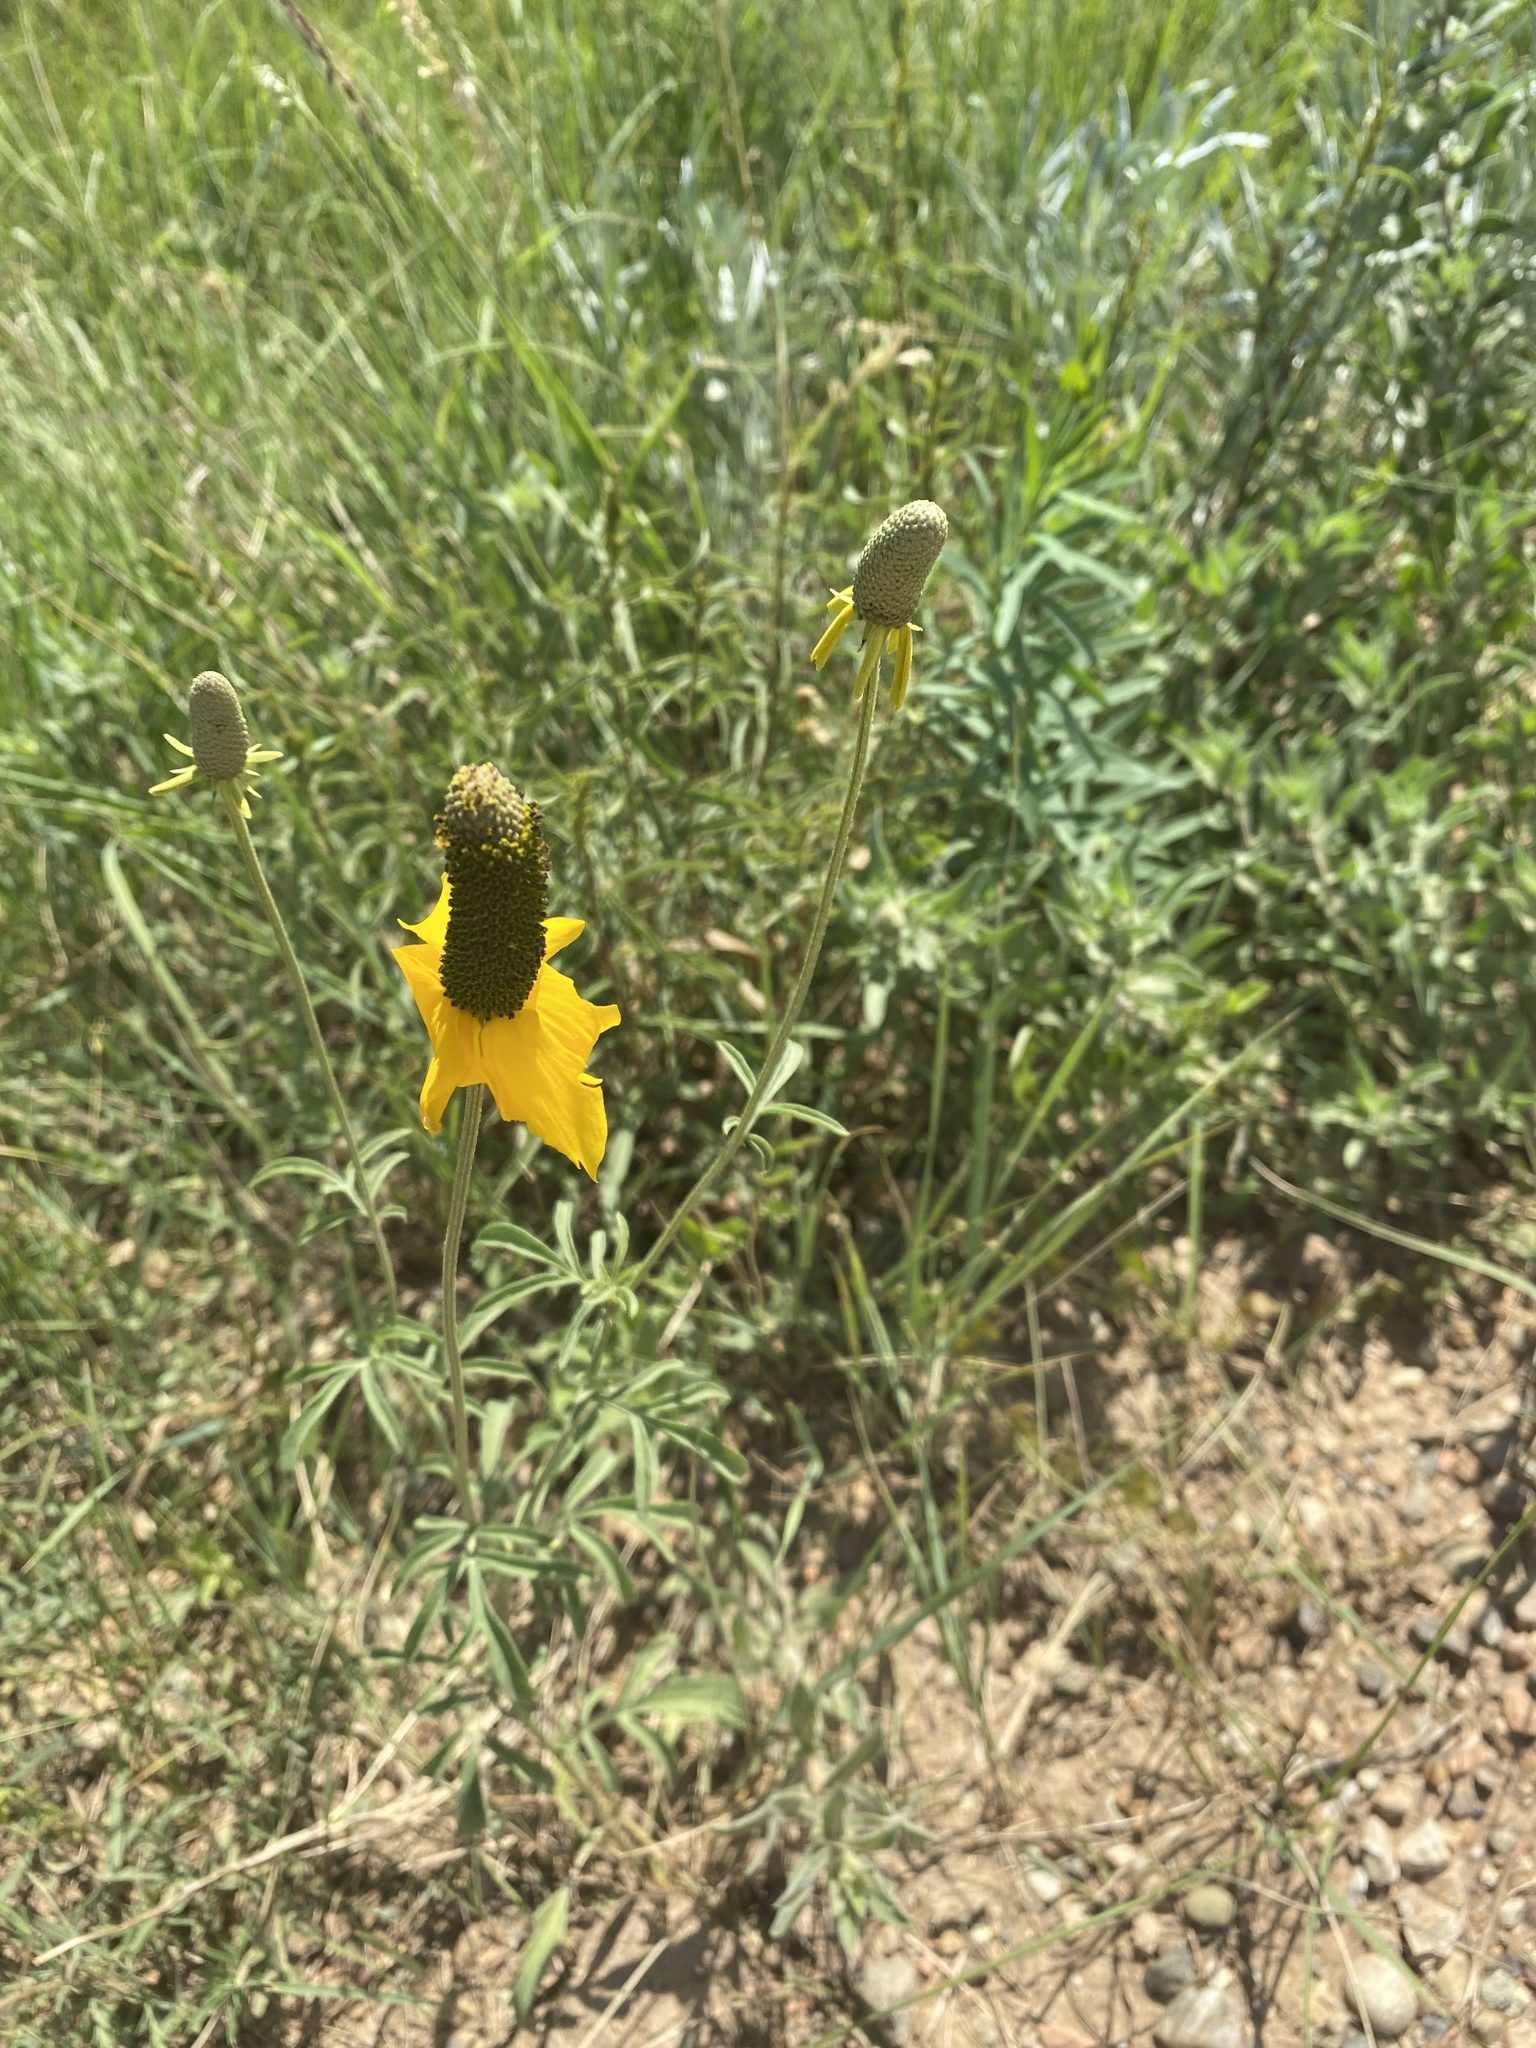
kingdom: Plantae
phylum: Tracheophyta
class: Magnoliopsida
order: Asterales
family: Asteraceae
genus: Ratibida
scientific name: Ratibida columnifera
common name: Prairie coneflower
